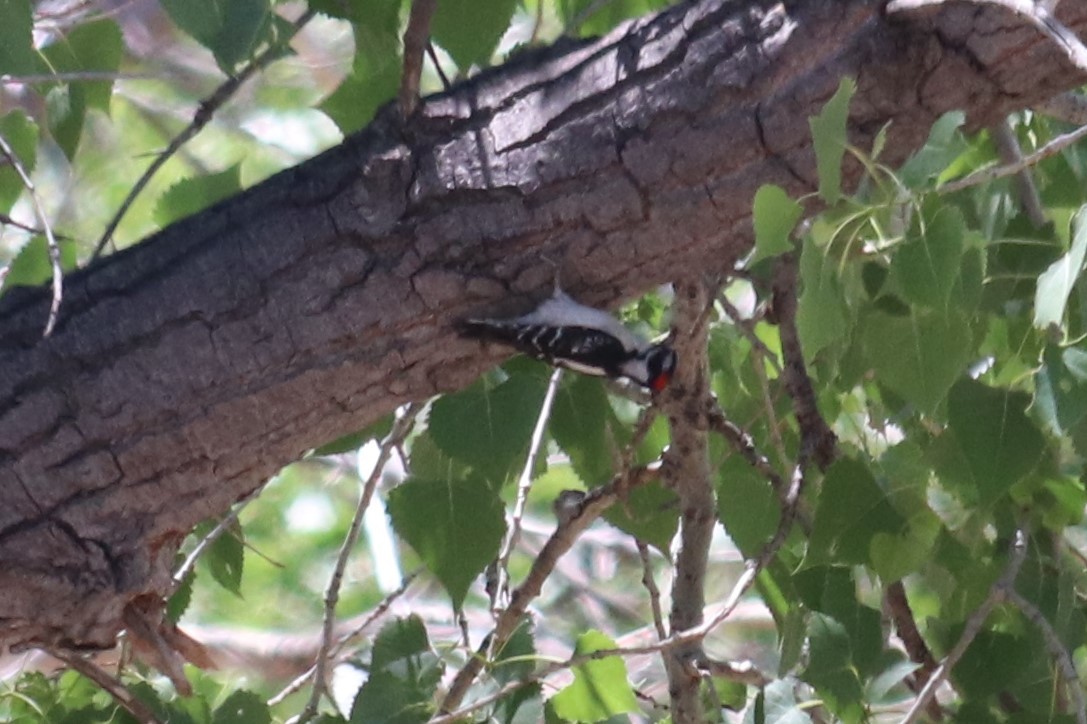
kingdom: Animalia
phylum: Chordata
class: Aves
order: Piciformes
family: Picidae
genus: Dryobates
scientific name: Dryobates pubescens
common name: Downy woodpecker
